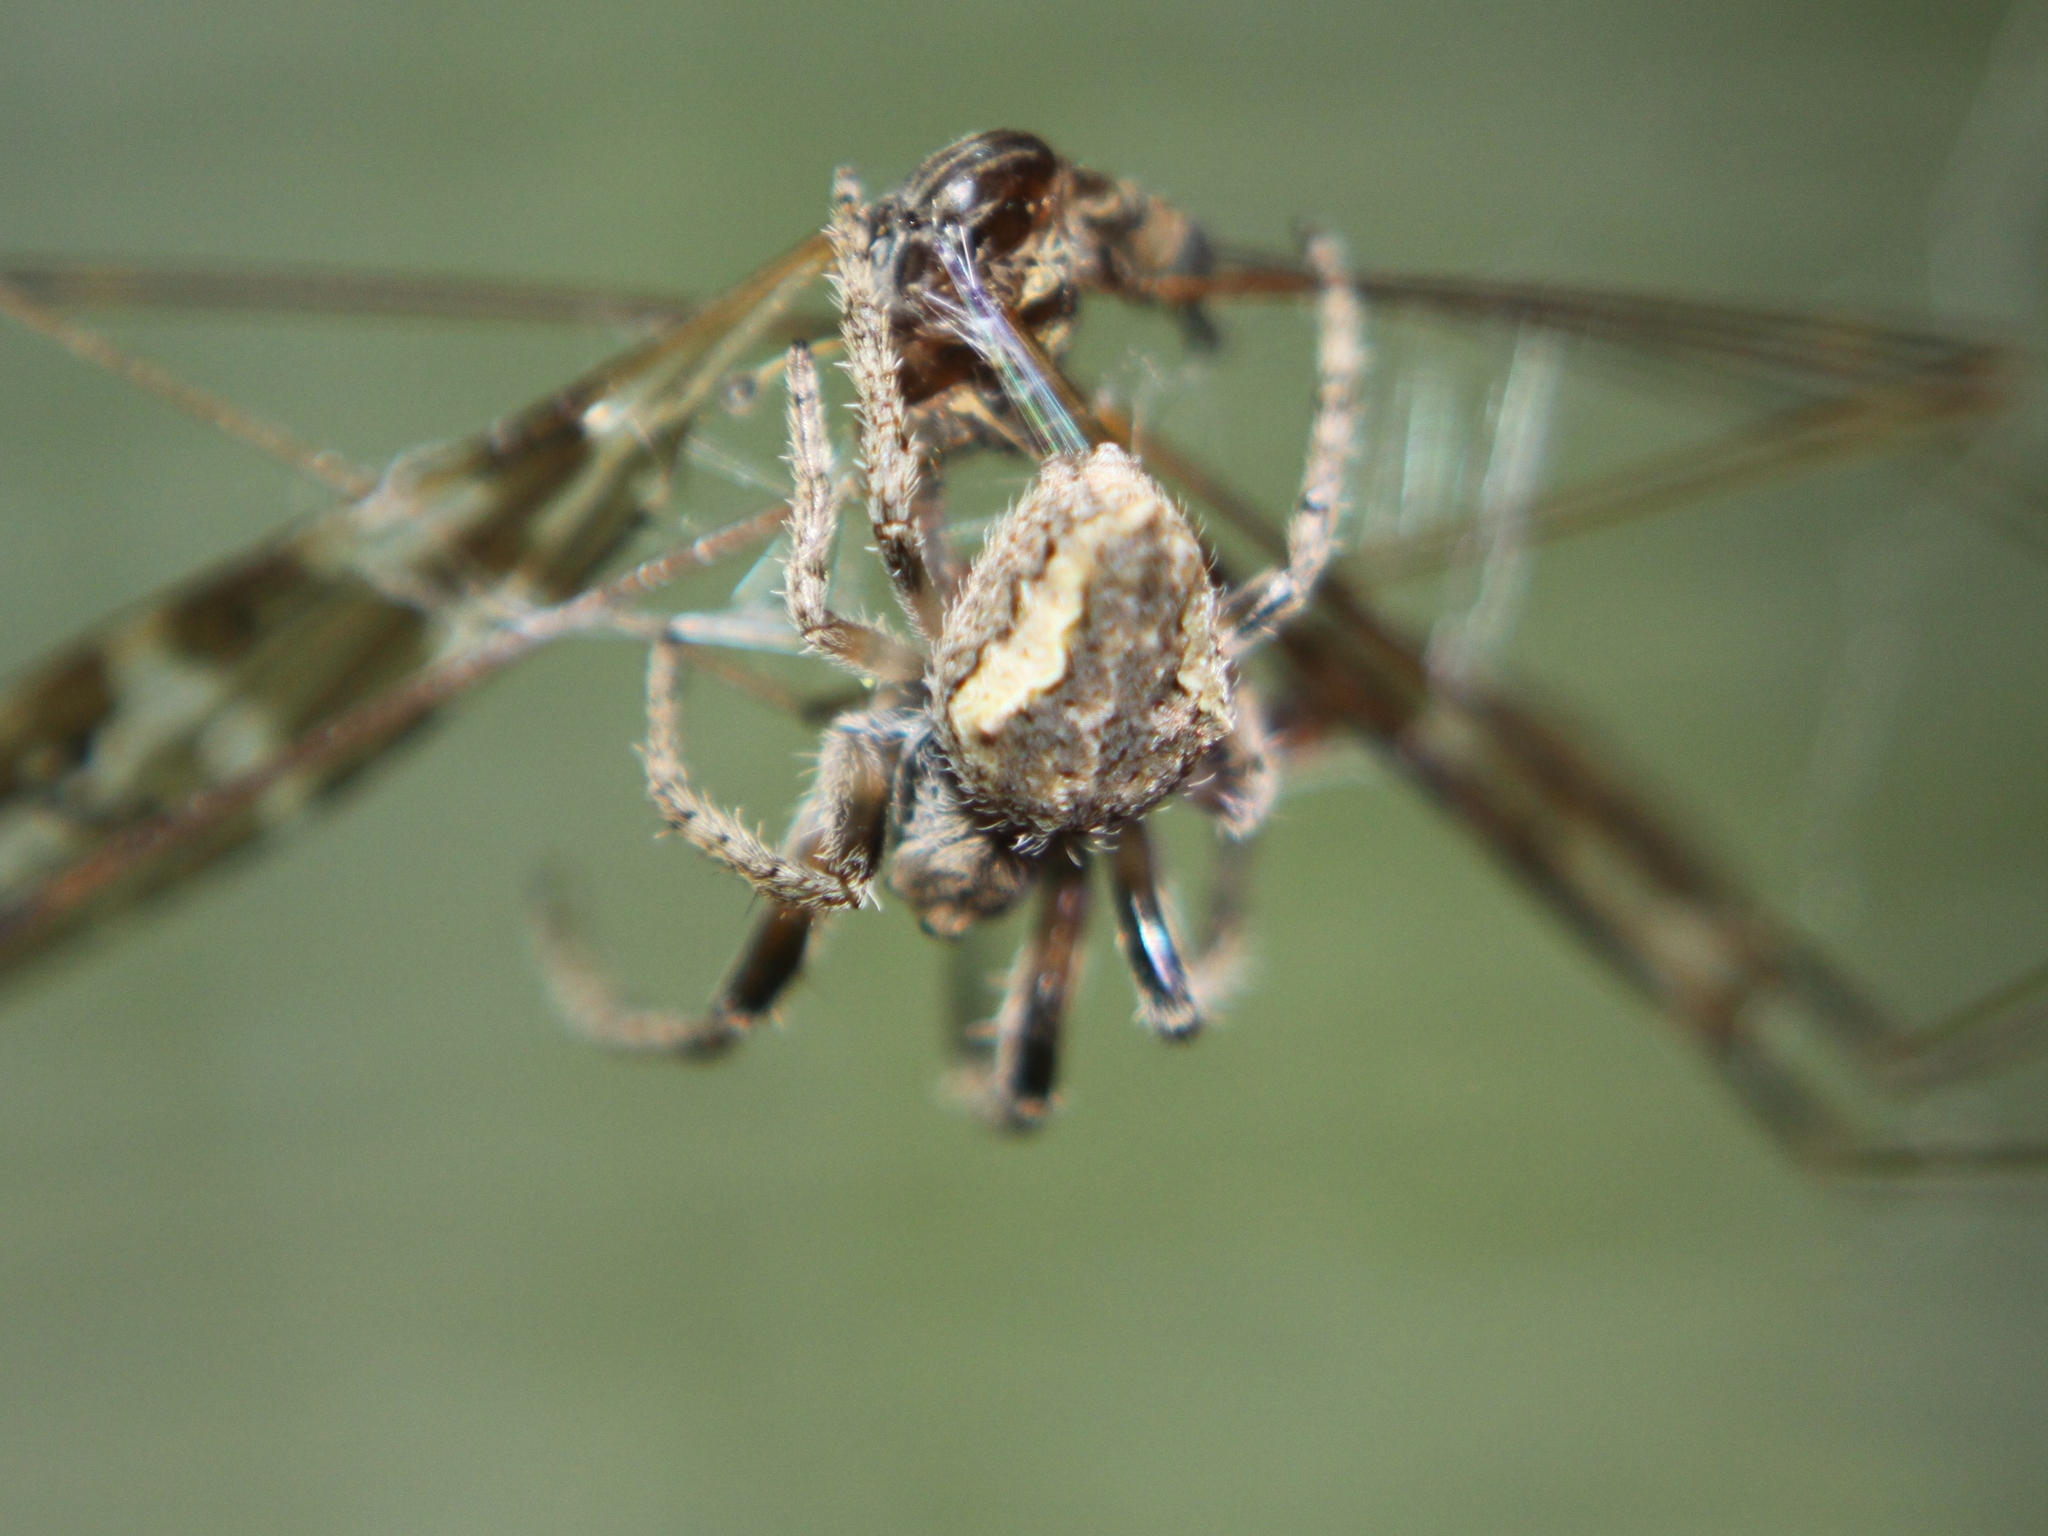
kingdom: Animalia
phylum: Arthropoda
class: Arachnida
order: Araneae
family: Araneidae
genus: Eriophora
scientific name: Eriophora pustulosa
